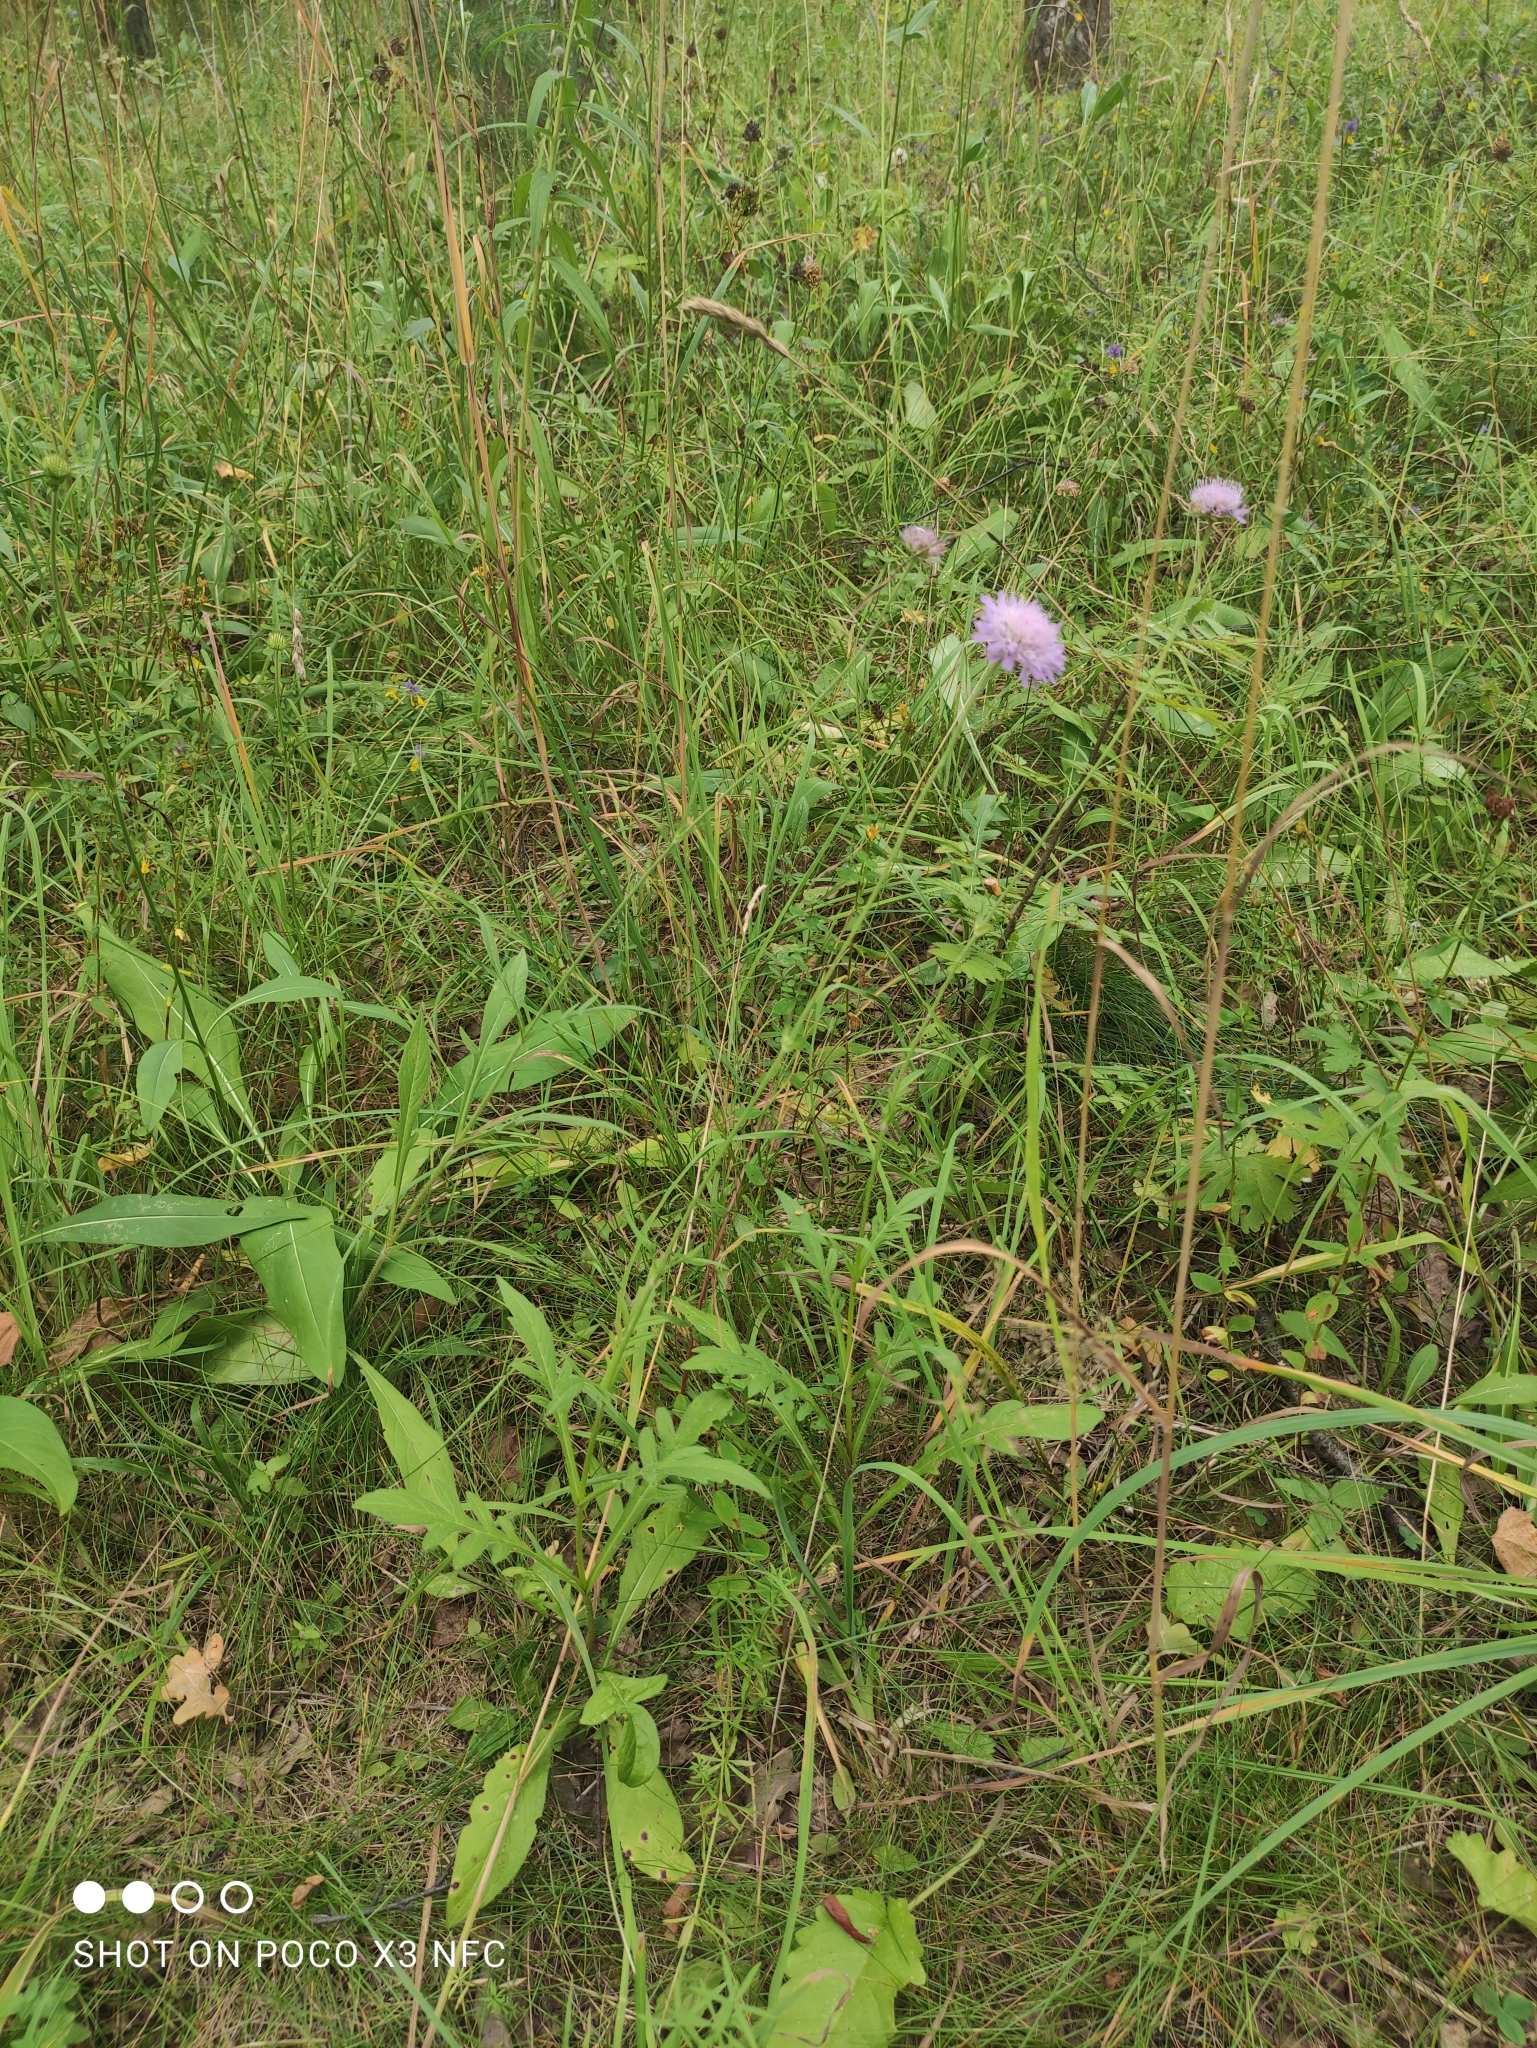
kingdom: Plantae
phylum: Tracheophyta
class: Magnoliopsida
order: Dipsacales
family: Caprifoliaceae
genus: Knautia
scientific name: Knautia arvensis
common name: Field scabiosa
